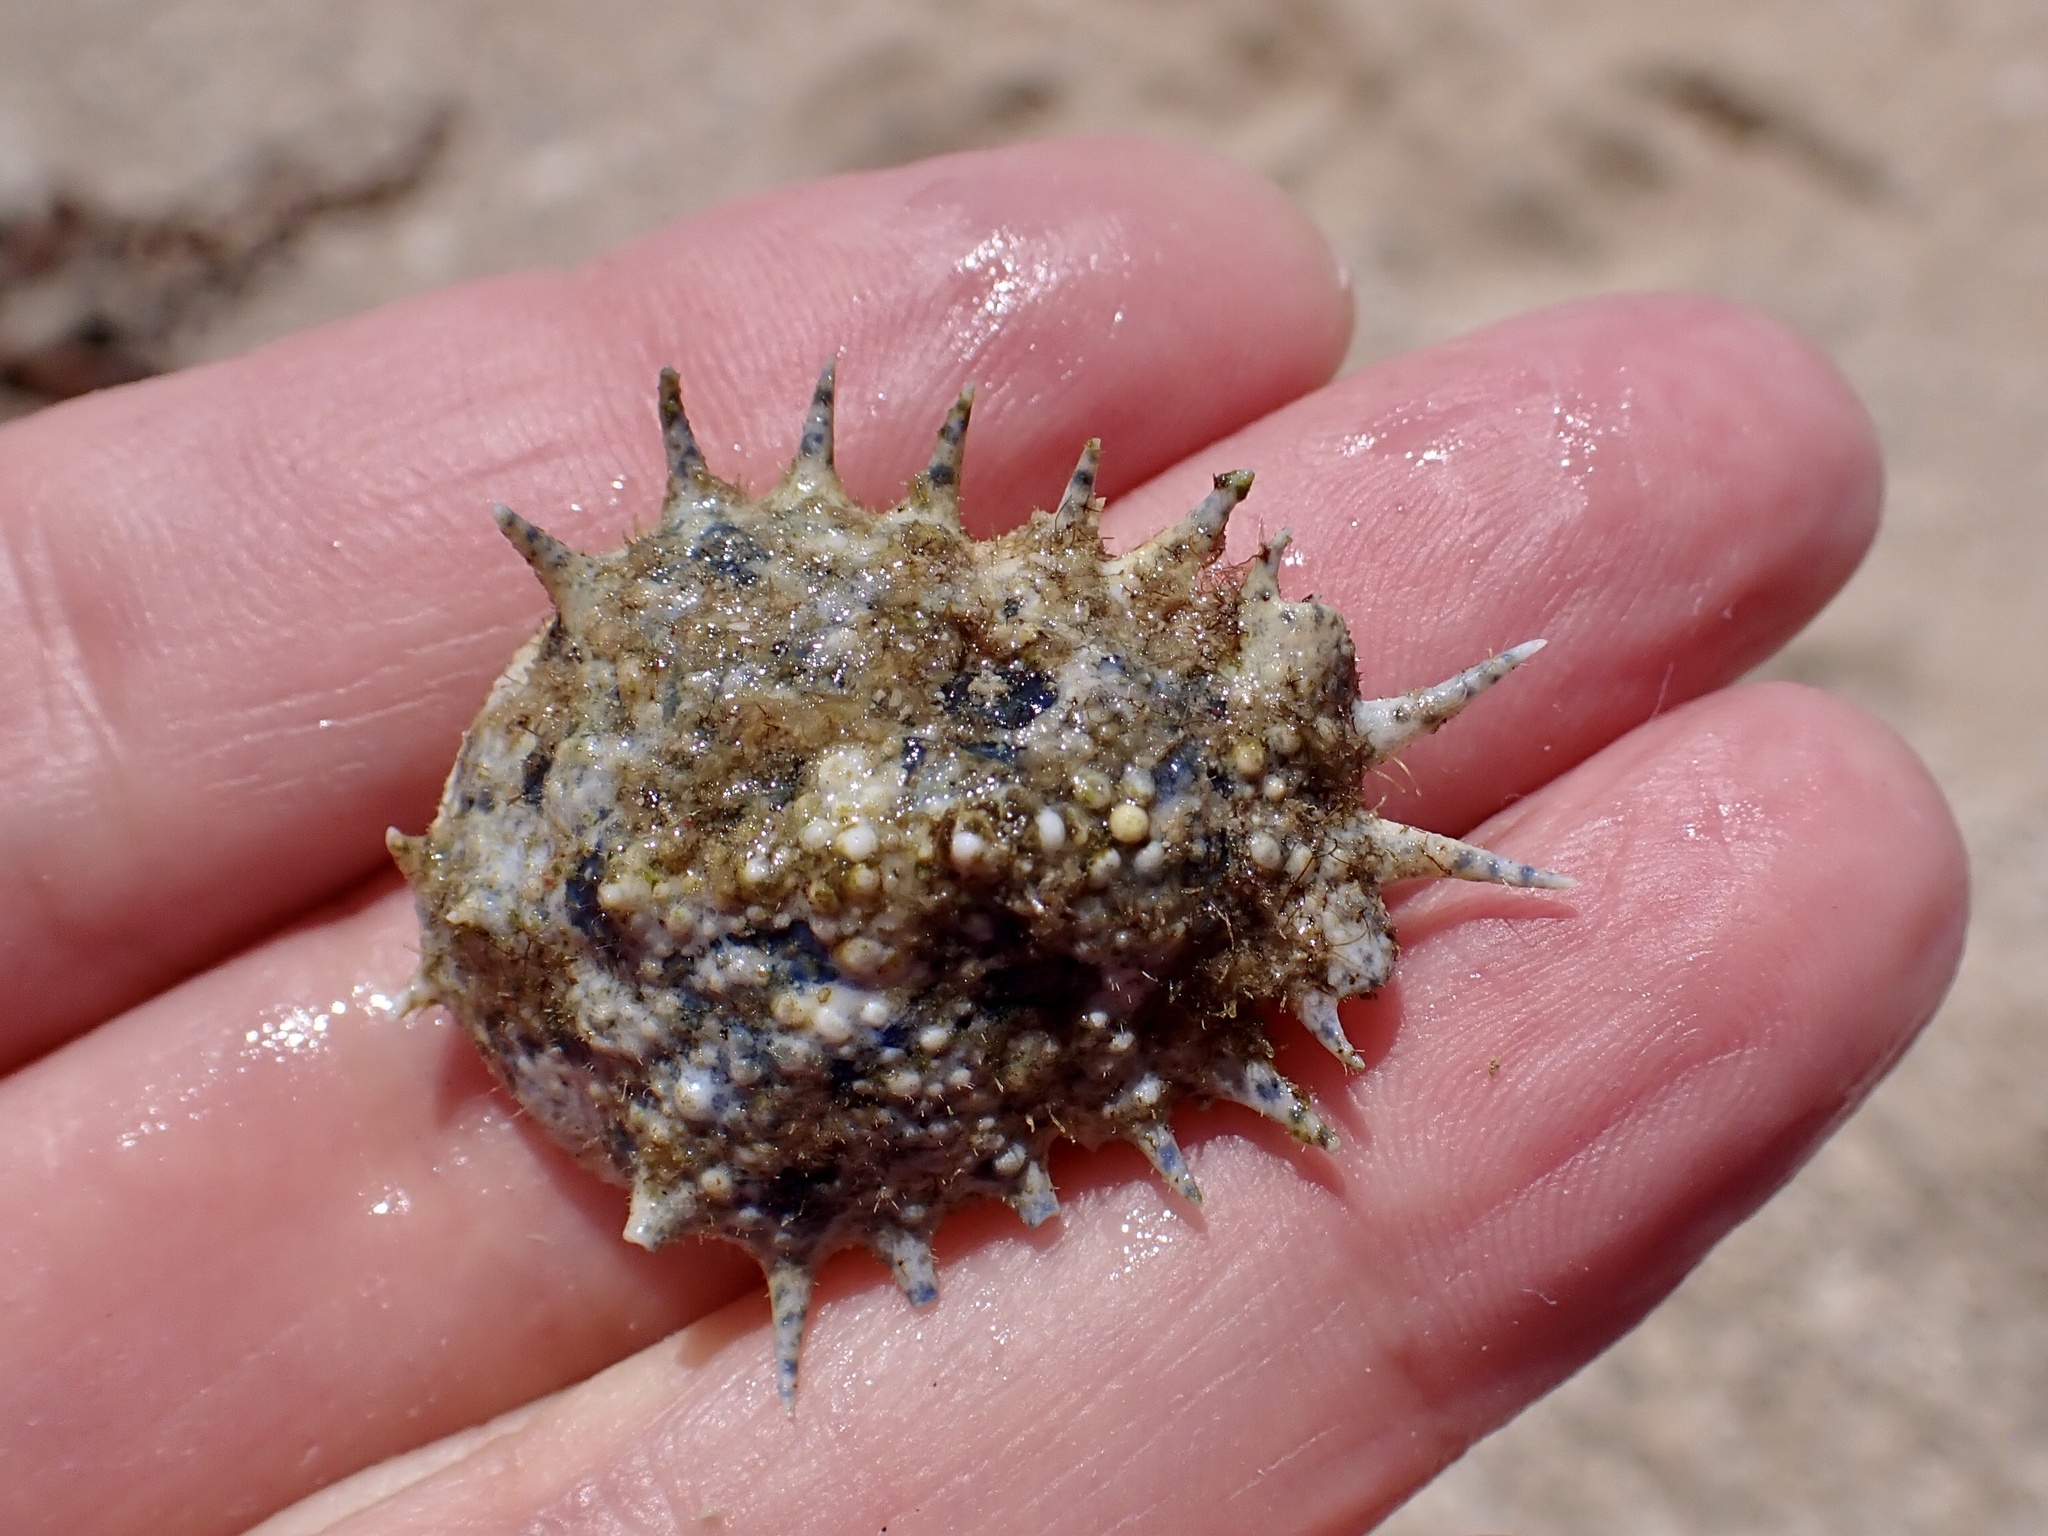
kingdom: Animalia
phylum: Arthropoda
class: Malacostraca
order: Decapoda
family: Majidae
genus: Maja
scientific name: Maja crispata
